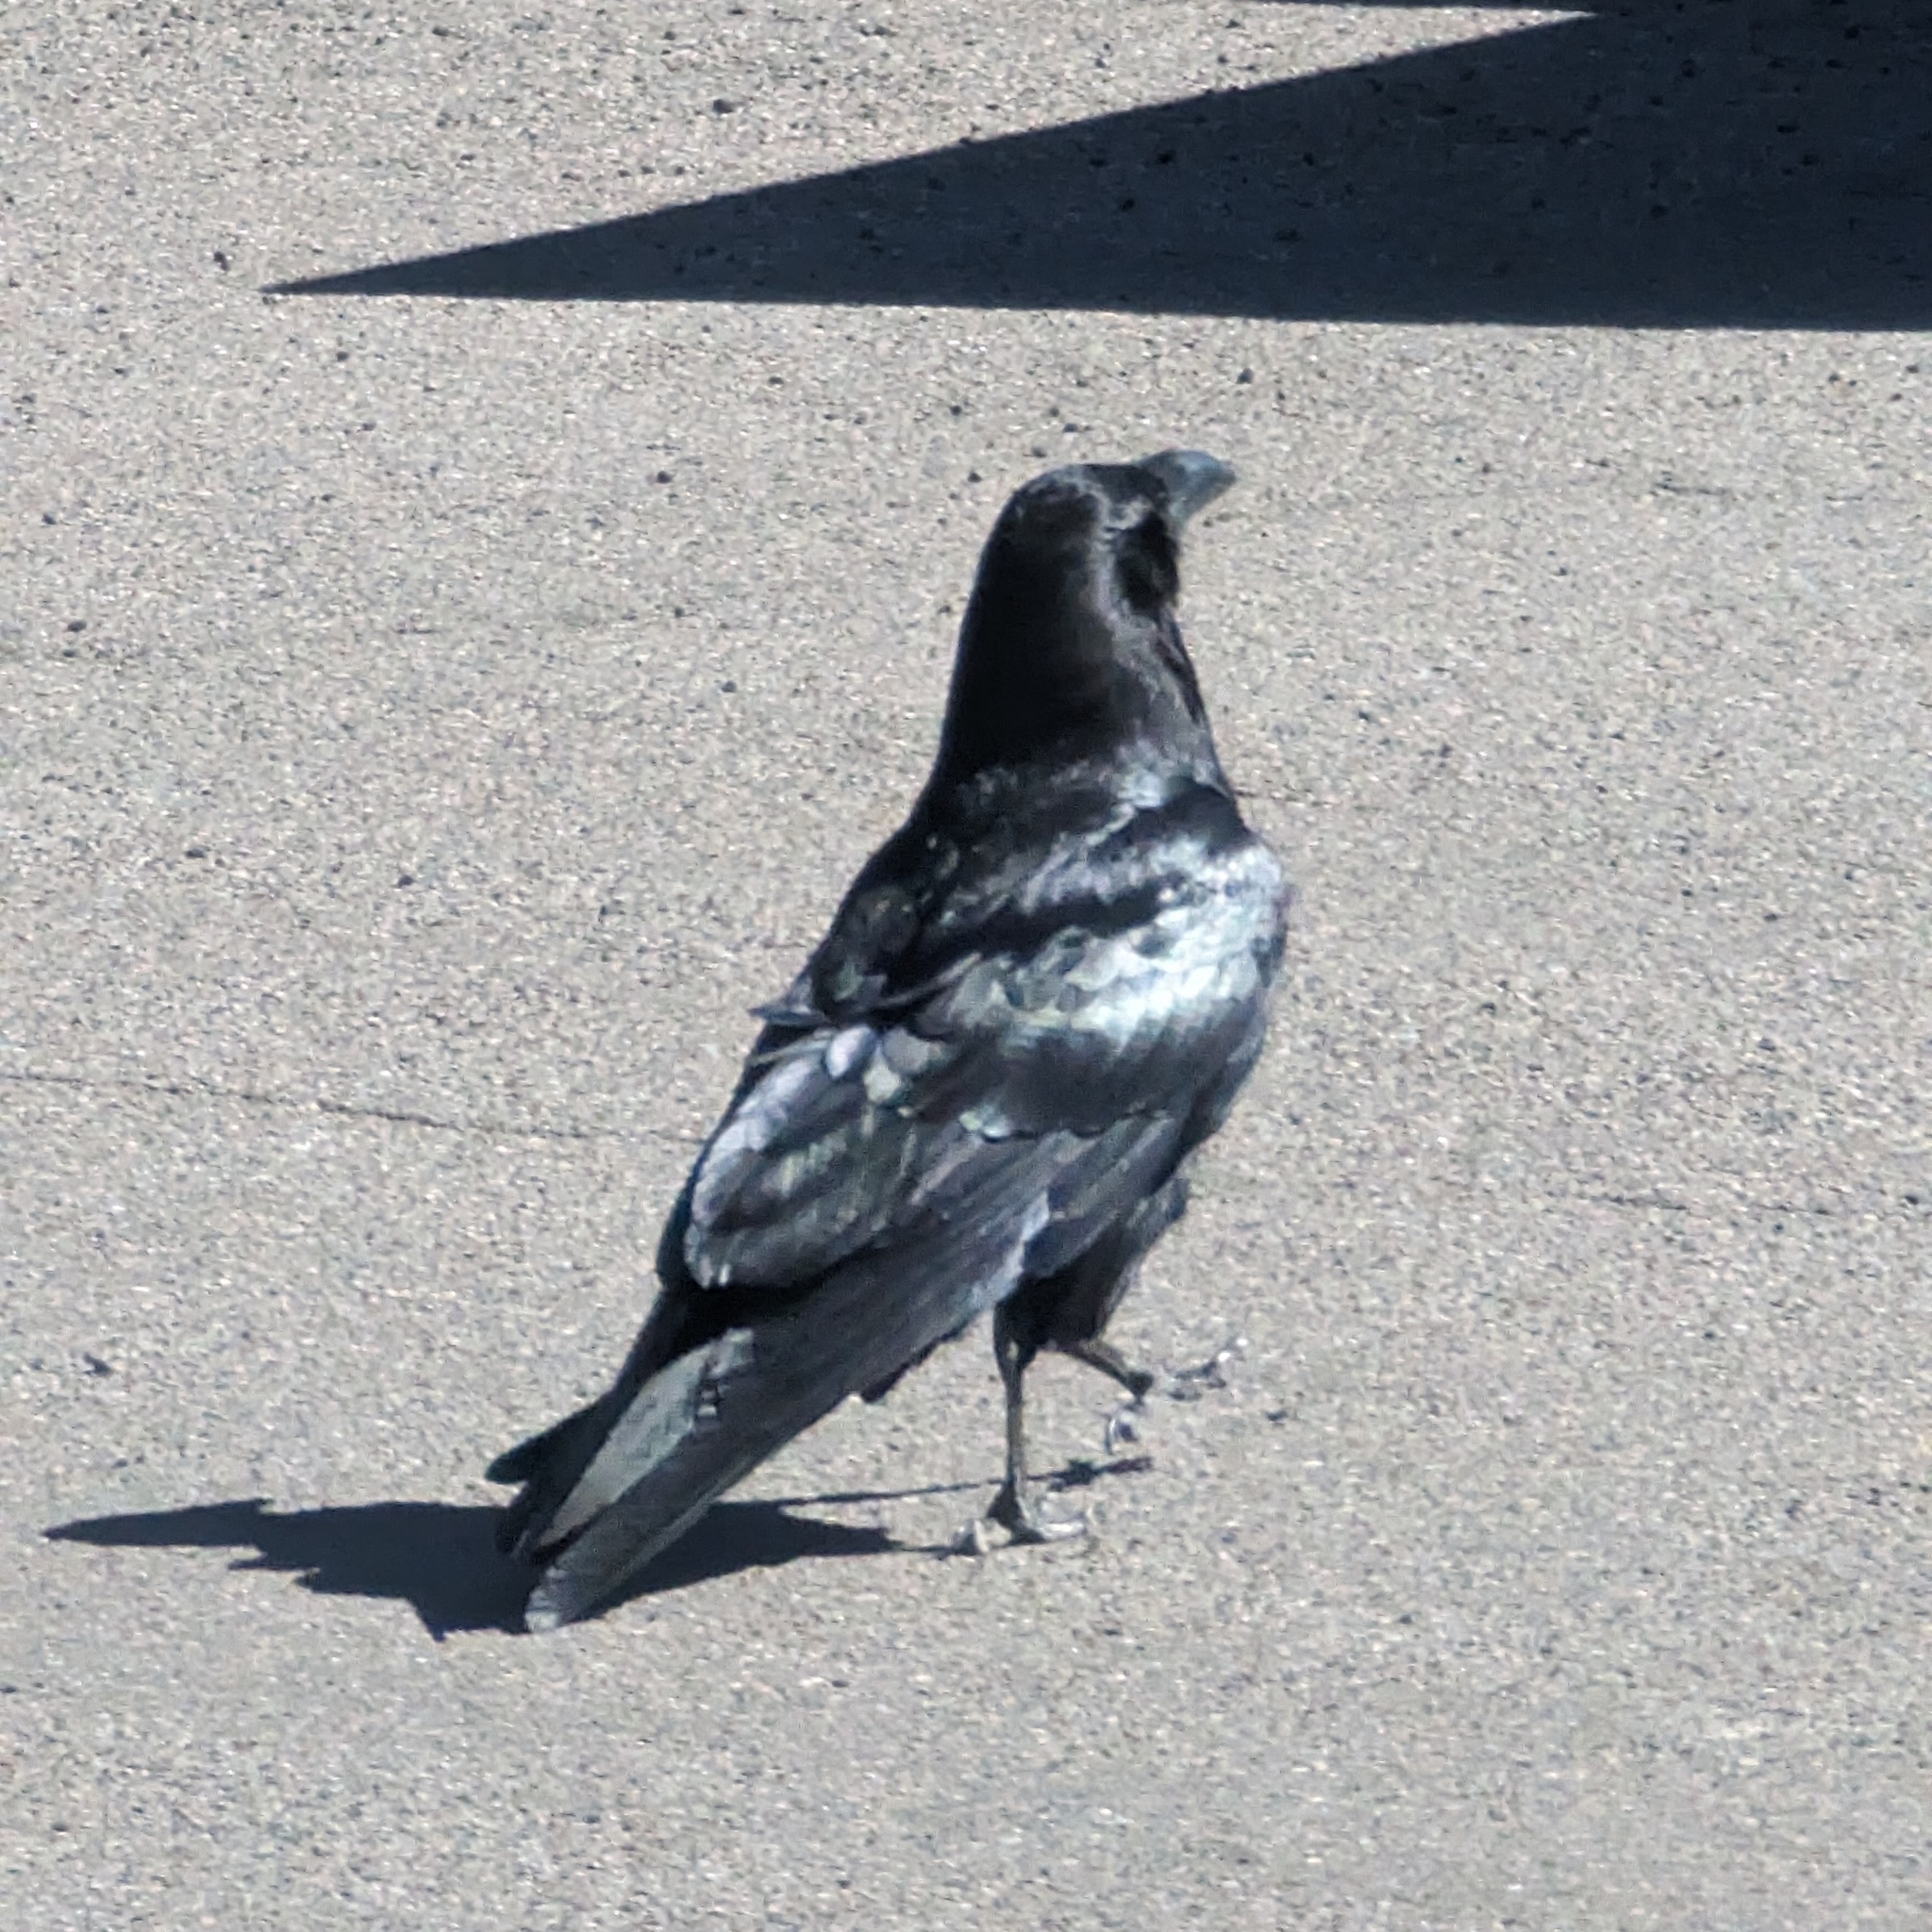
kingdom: Animalia
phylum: Chordata
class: Aves
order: Passeriformes
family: Corvidae
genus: Corvus
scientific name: Corvus corax
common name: Common raven
